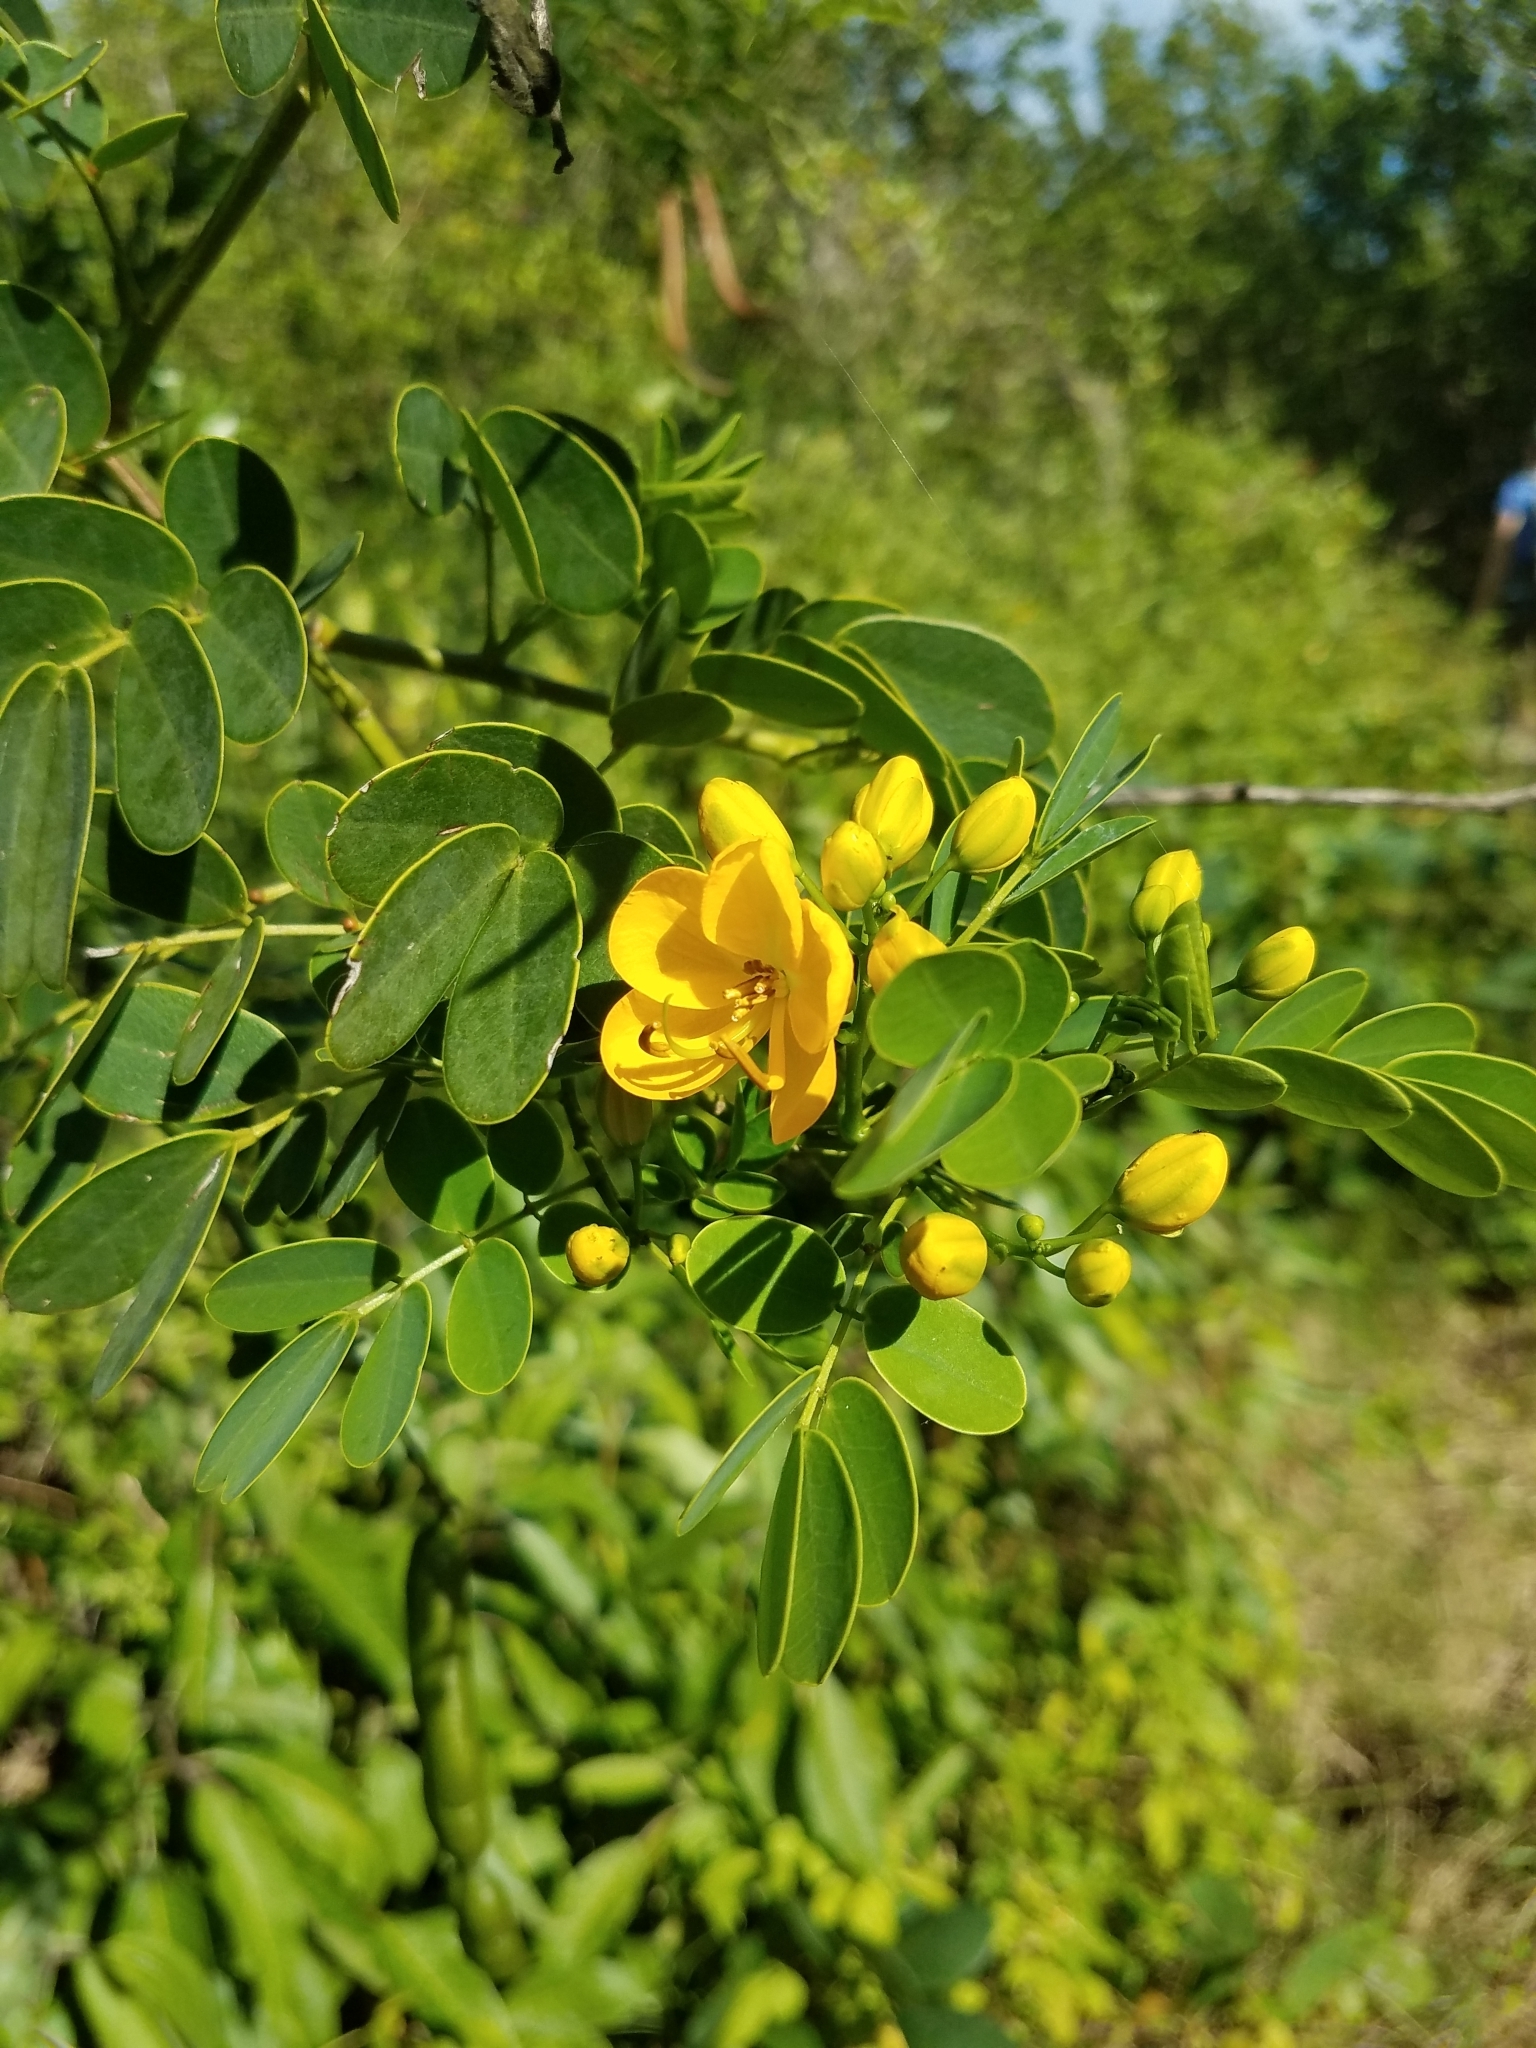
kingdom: Plantae
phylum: Tracheophyta
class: Magnoliopsida
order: Fabales
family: Fabaceae
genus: Senna
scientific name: Senna pendula
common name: Easter cassia
